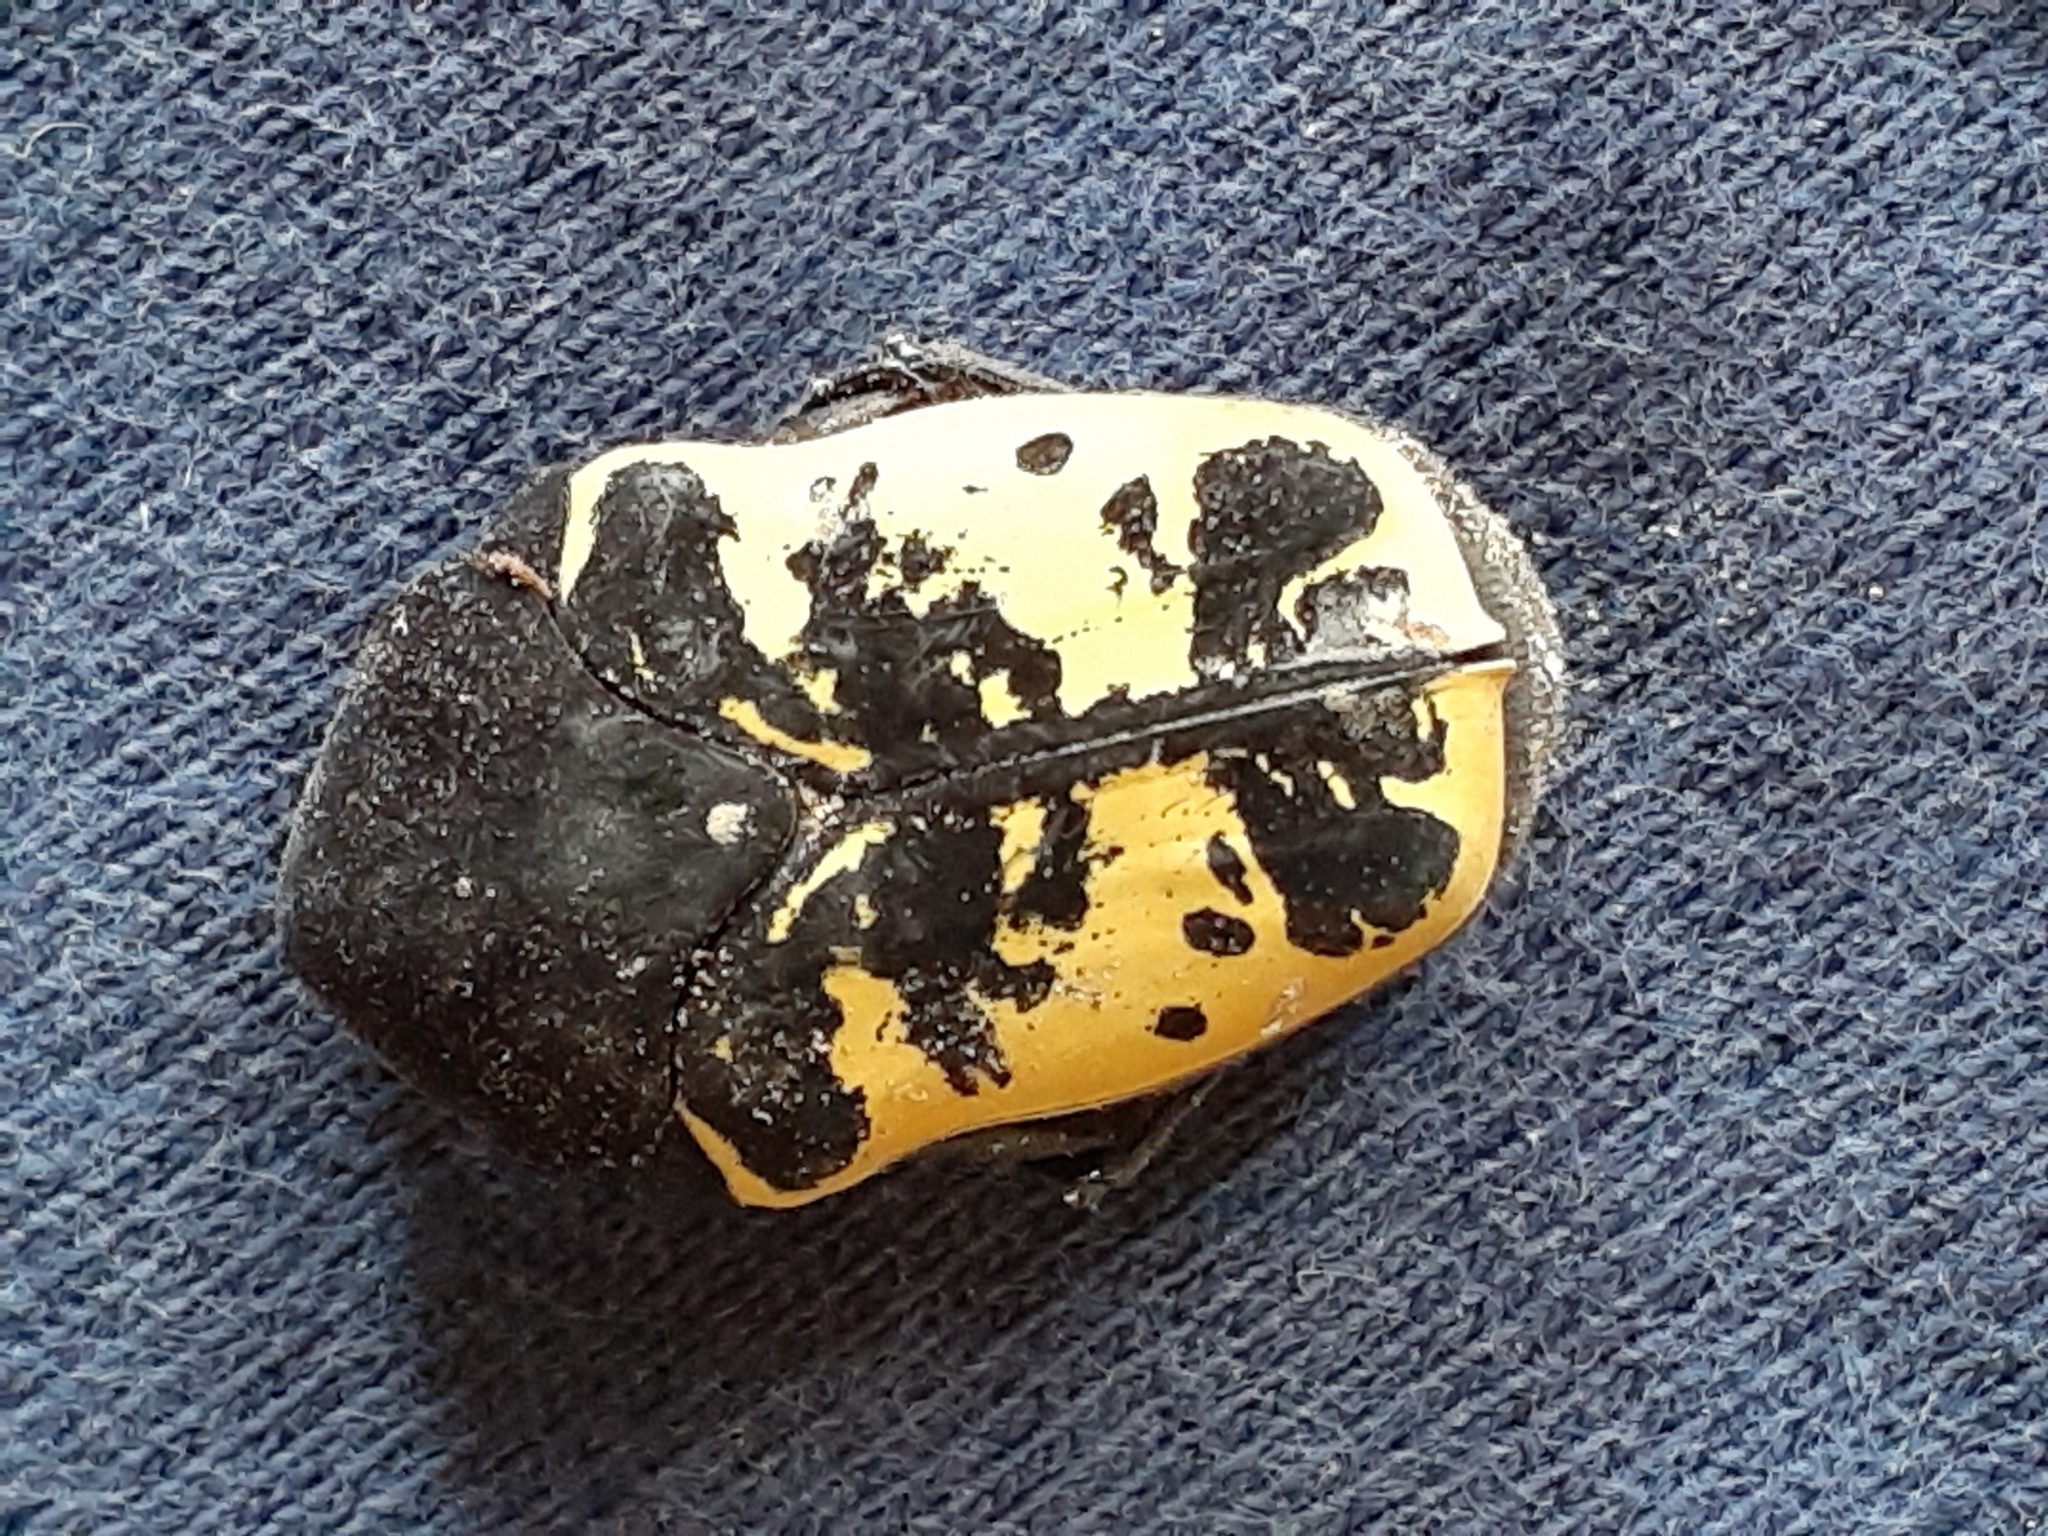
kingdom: Animalia
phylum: Arthropoda
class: Insecta
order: Coleoptera
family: Scarabaeidae
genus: Gymnetis
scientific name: Gymnetis merops
